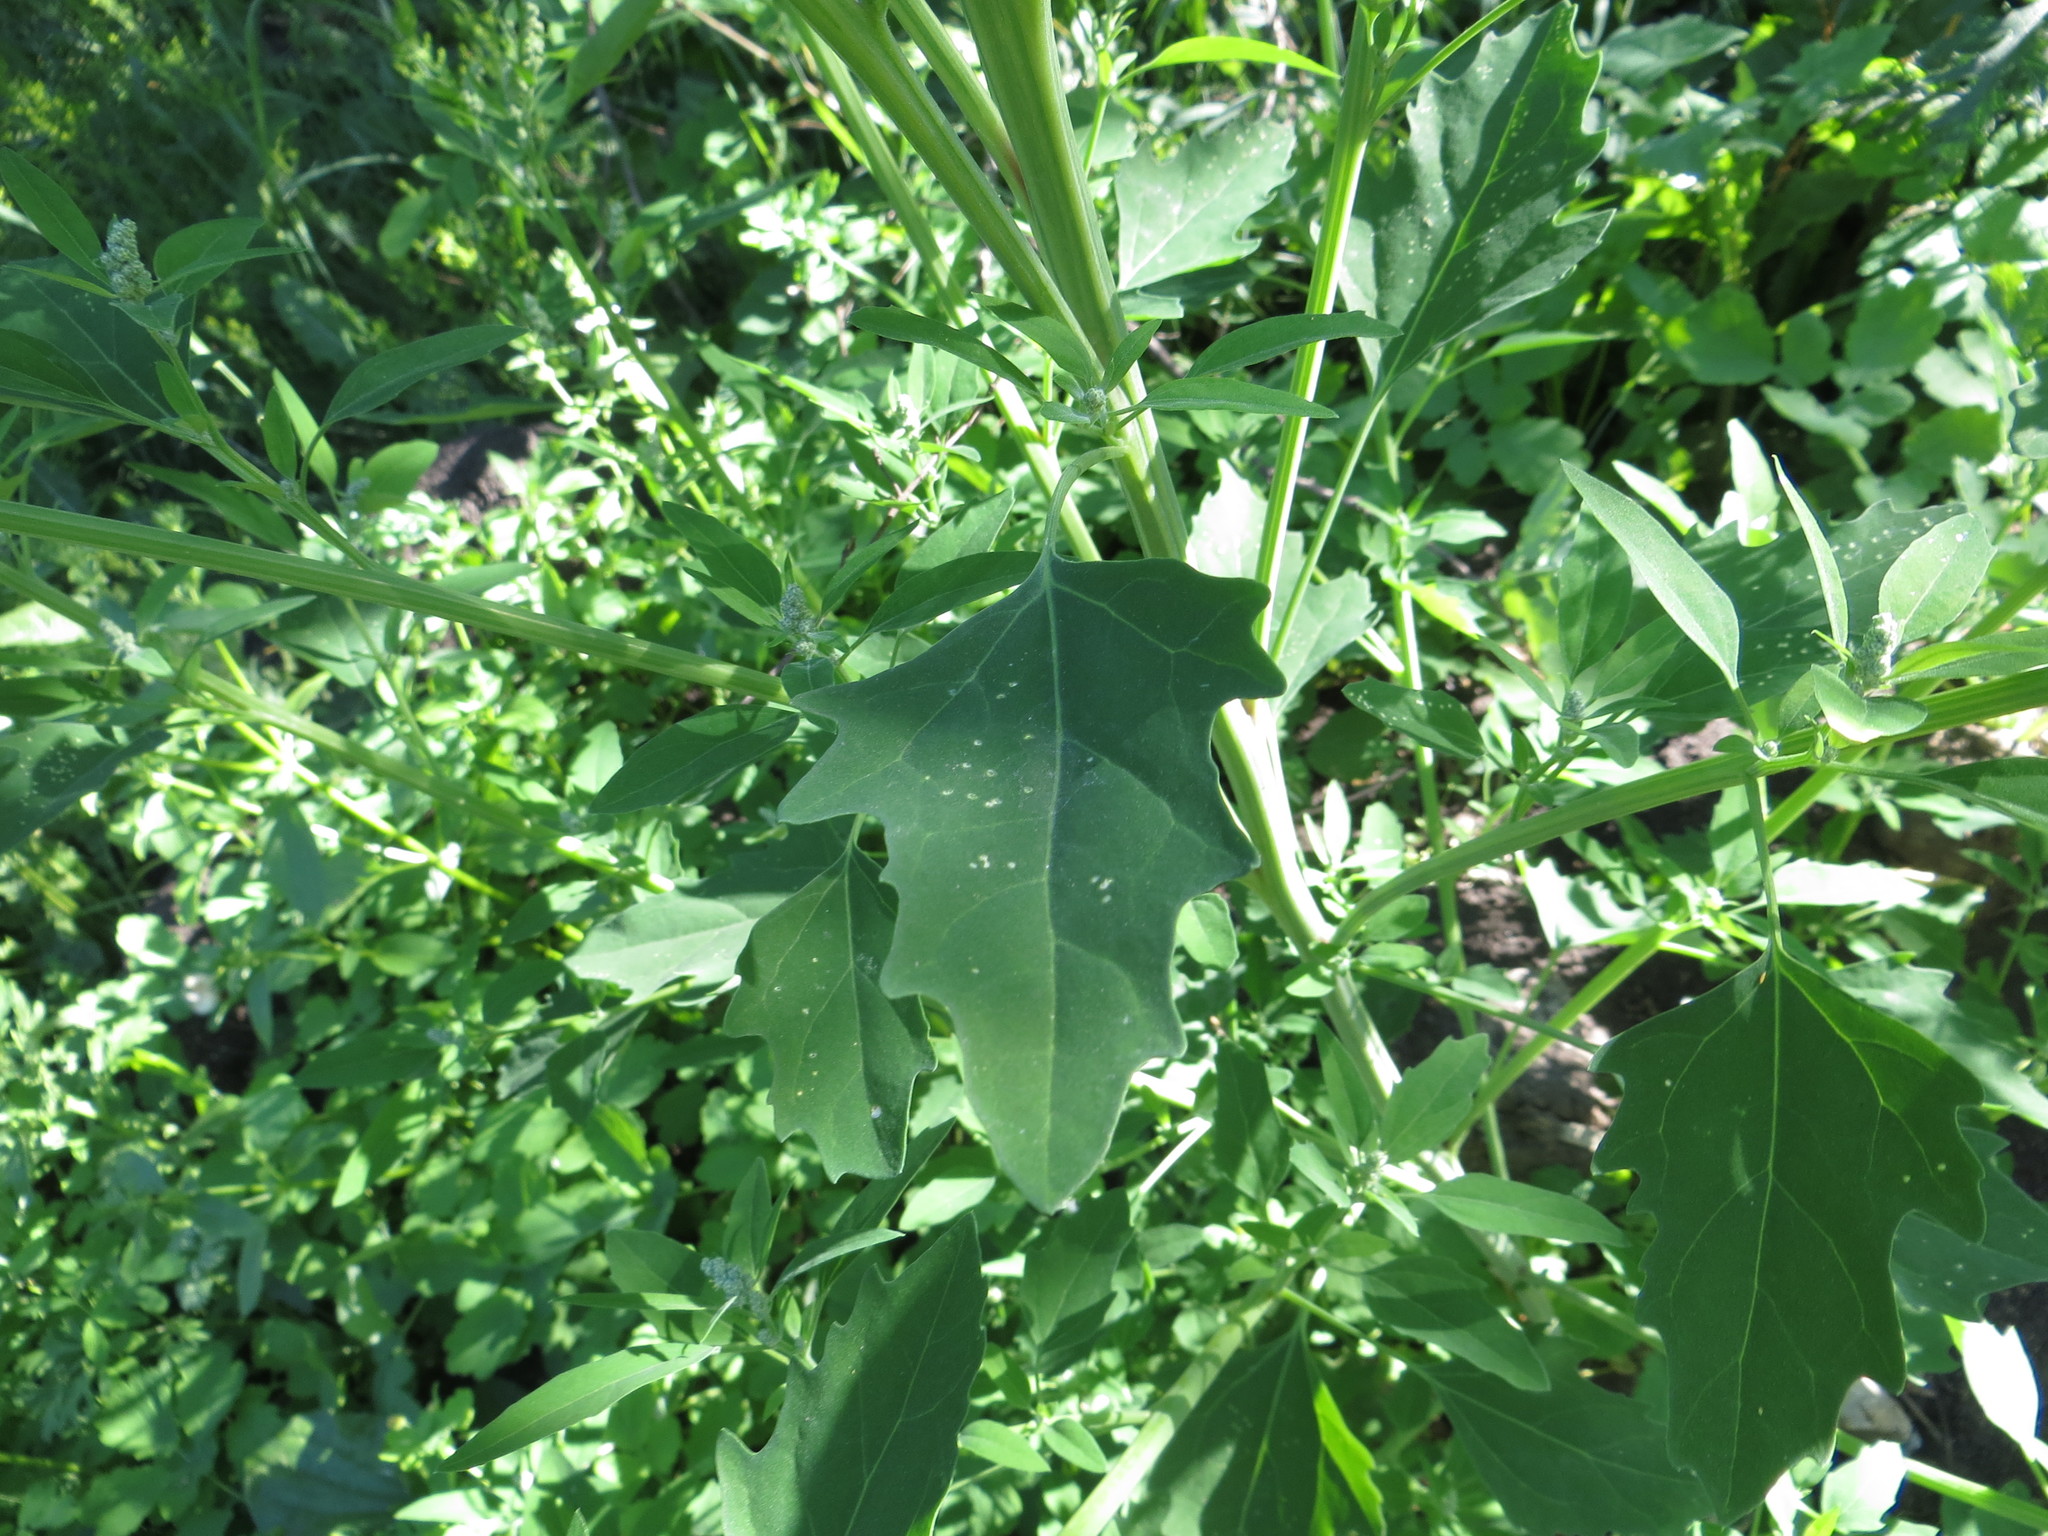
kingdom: Plantae
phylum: Tracheophyta
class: Magnoliopsida
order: Caryophyllales
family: Amaranthaceae
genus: Chenopodium
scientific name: Chenopodium album
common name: Fat-hen
